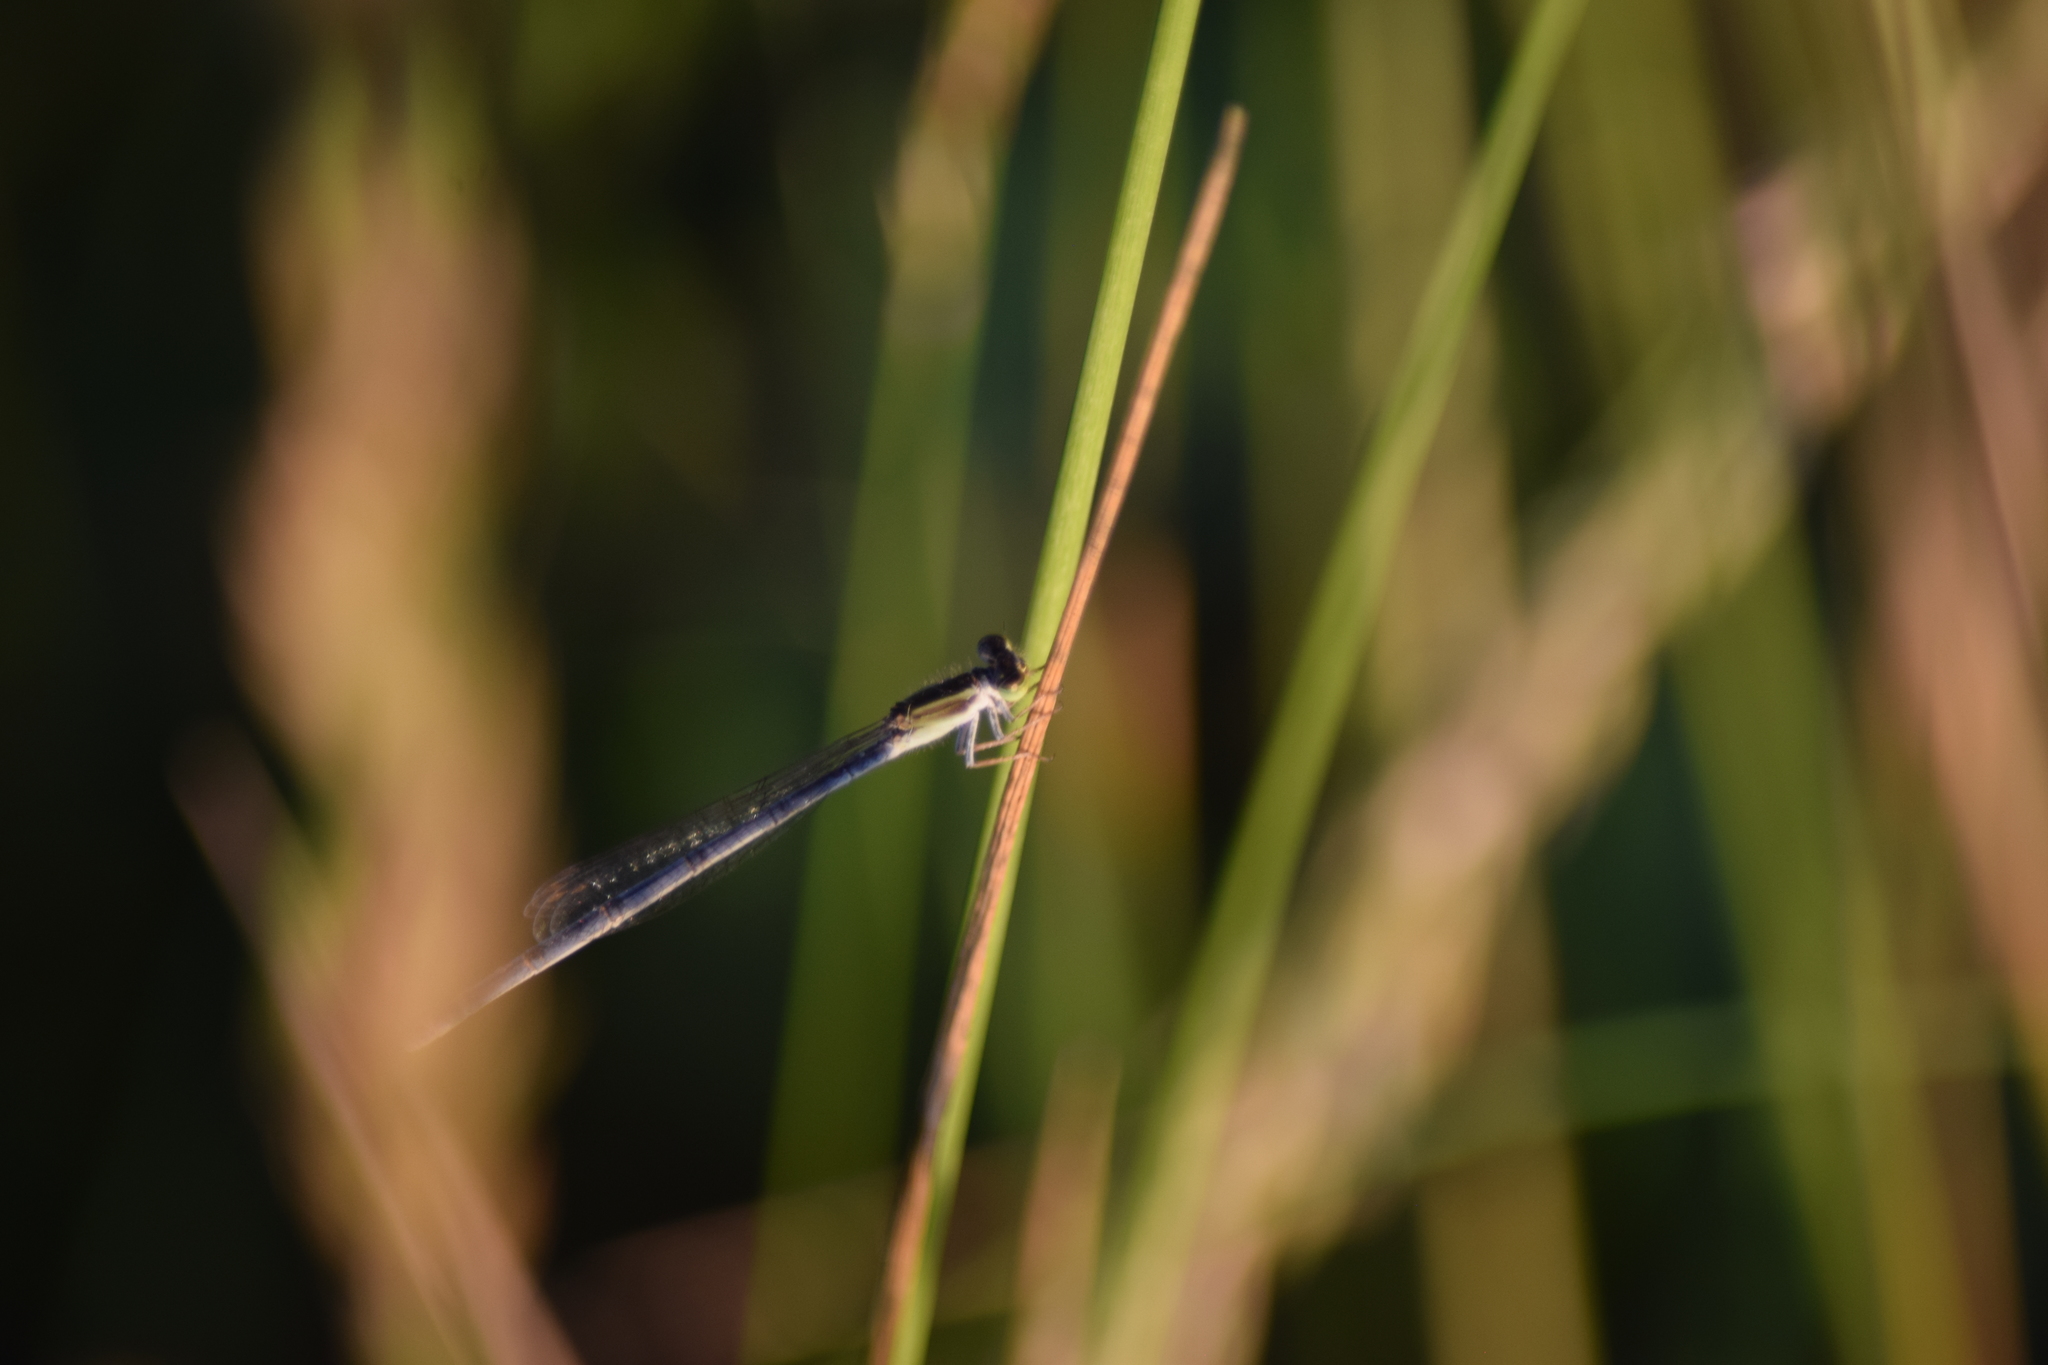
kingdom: Animalia
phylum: Arthropoda
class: Insecta
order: Odonata
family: Coenagrionidae
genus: Ischnura
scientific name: Ischnura hastata
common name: Citrine forktail
